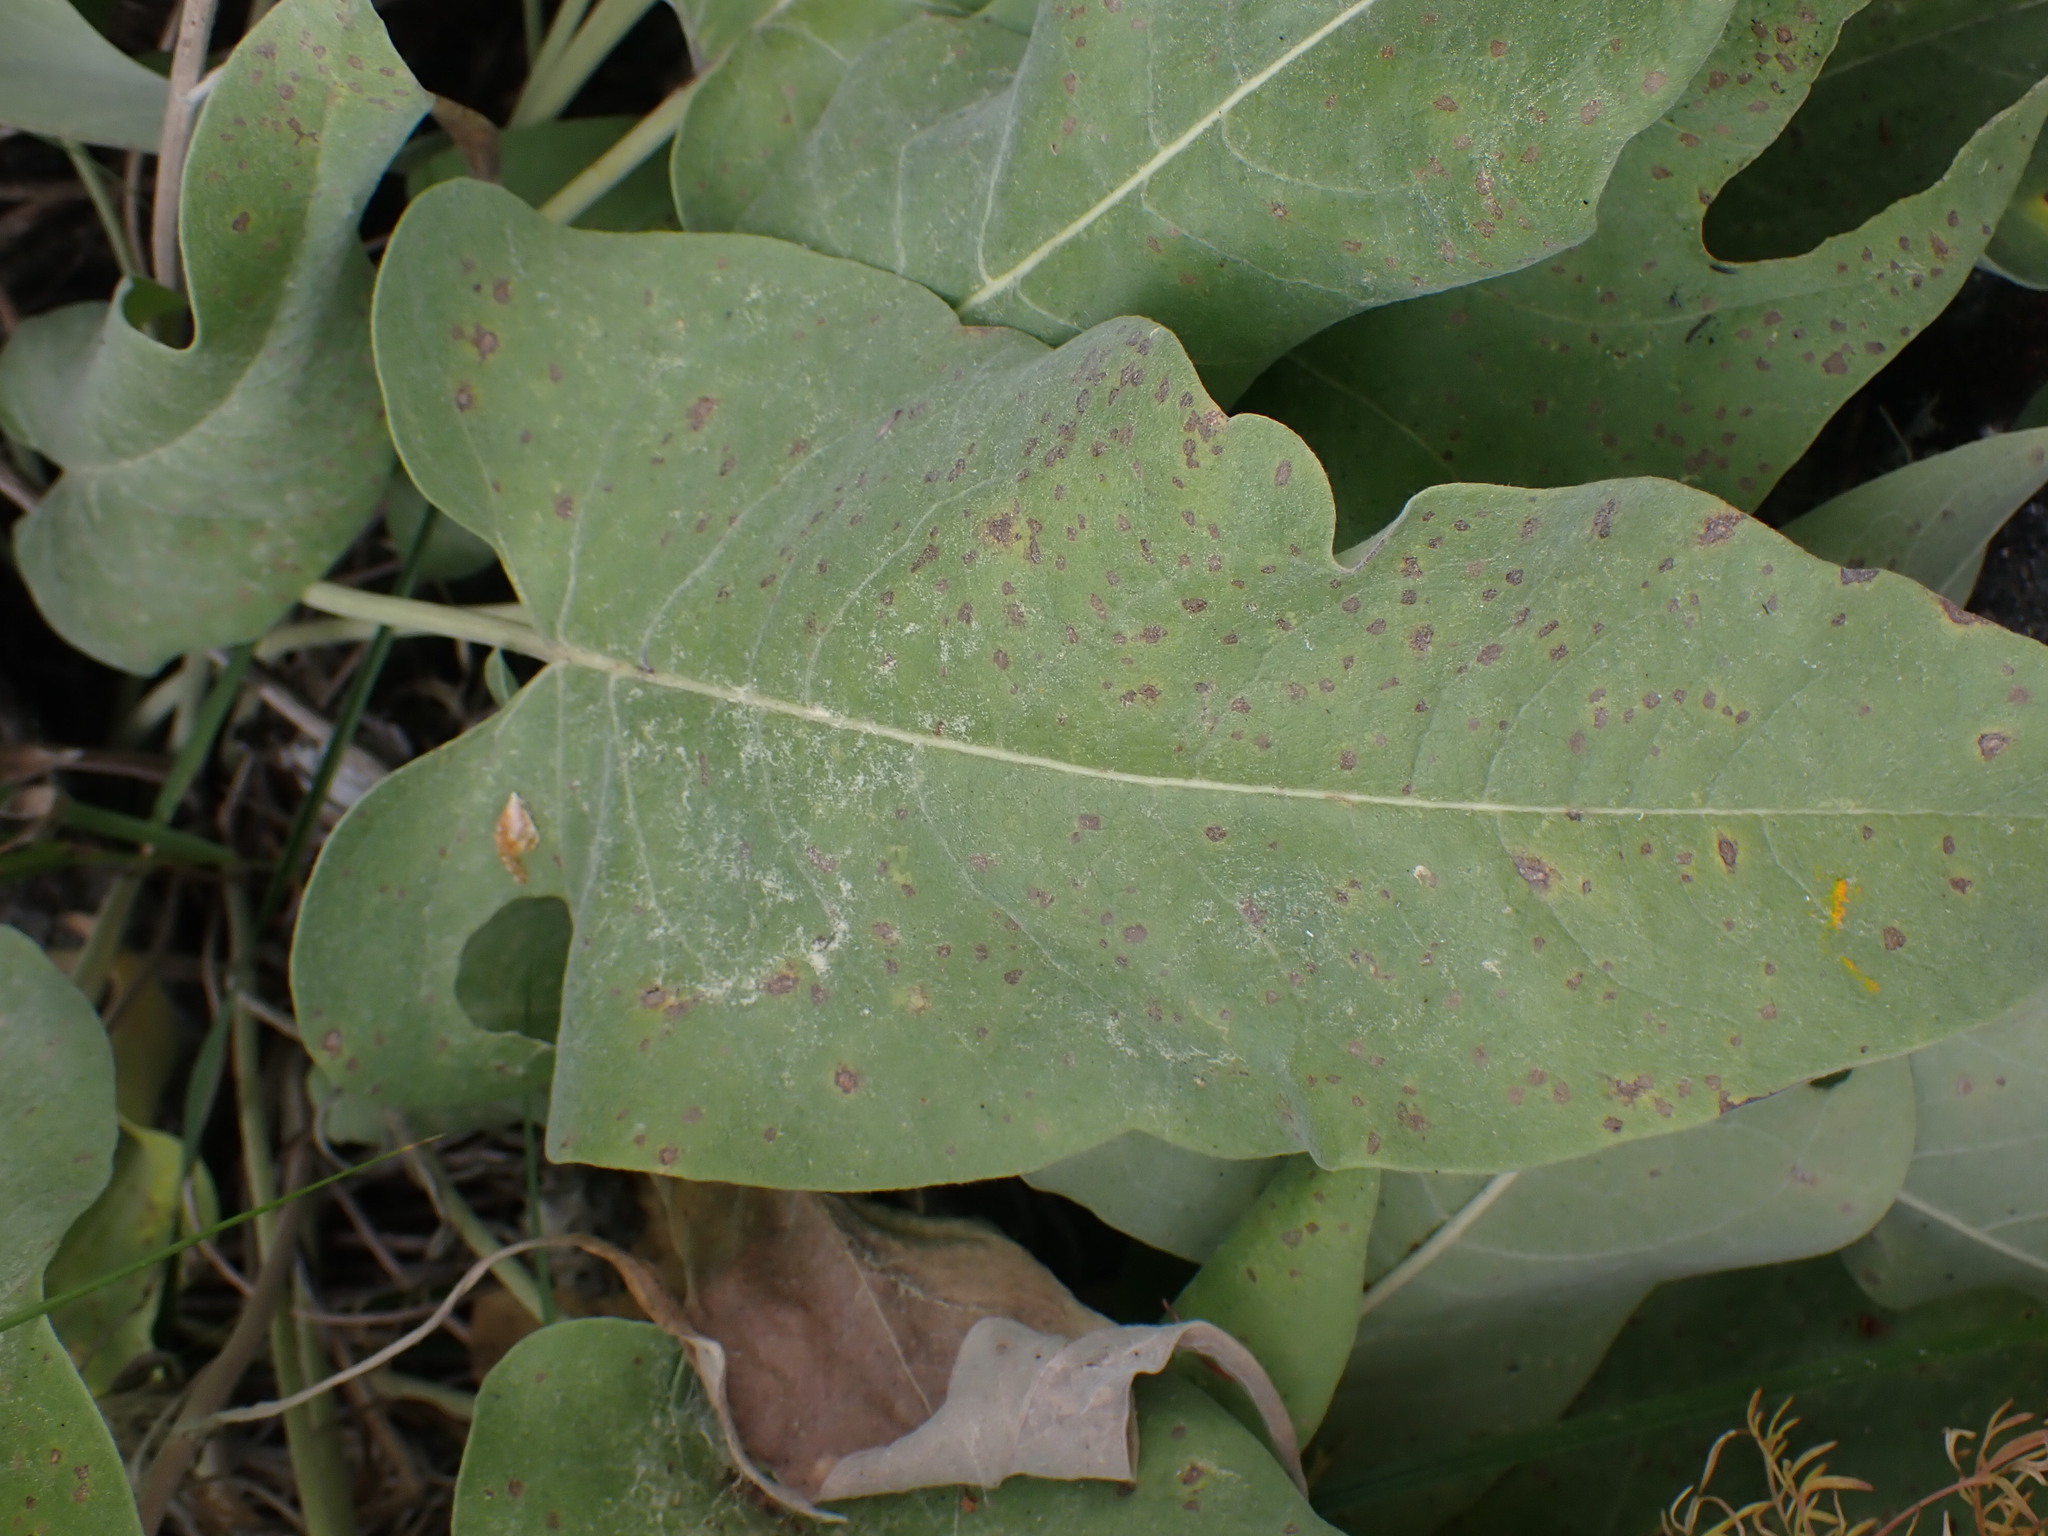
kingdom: Plantae
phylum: Tracheophyta
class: Magnoliopsida
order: Asterales
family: Asteraceae
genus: Wyethia
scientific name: Wyethia sagittata
